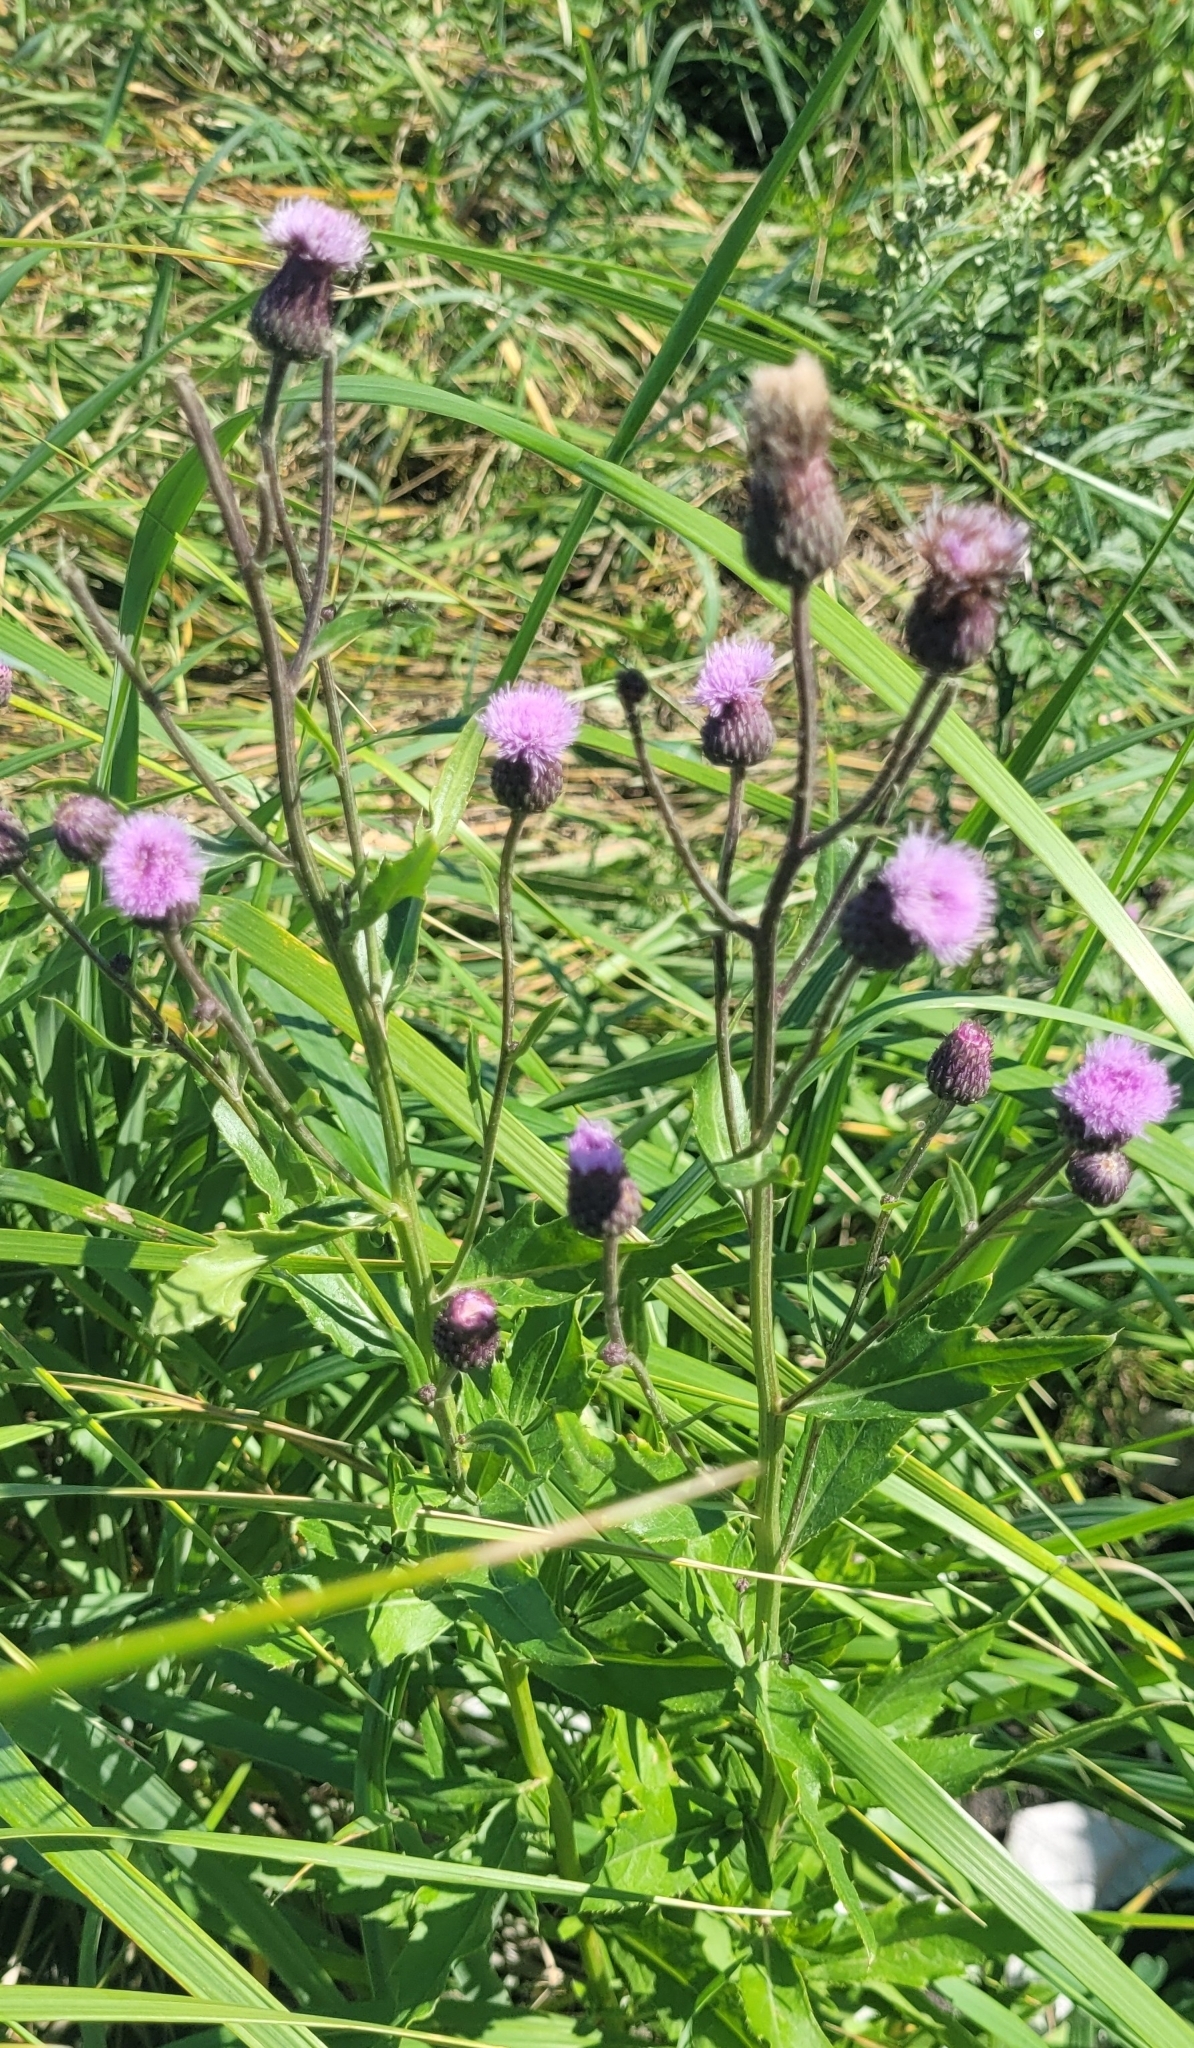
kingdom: Plantae
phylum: Tracheophyta
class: Magnoliopsida
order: Asterales
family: Asteraceae
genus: Cirsium
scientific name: Cirsium arvense
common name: Creeping thistle
